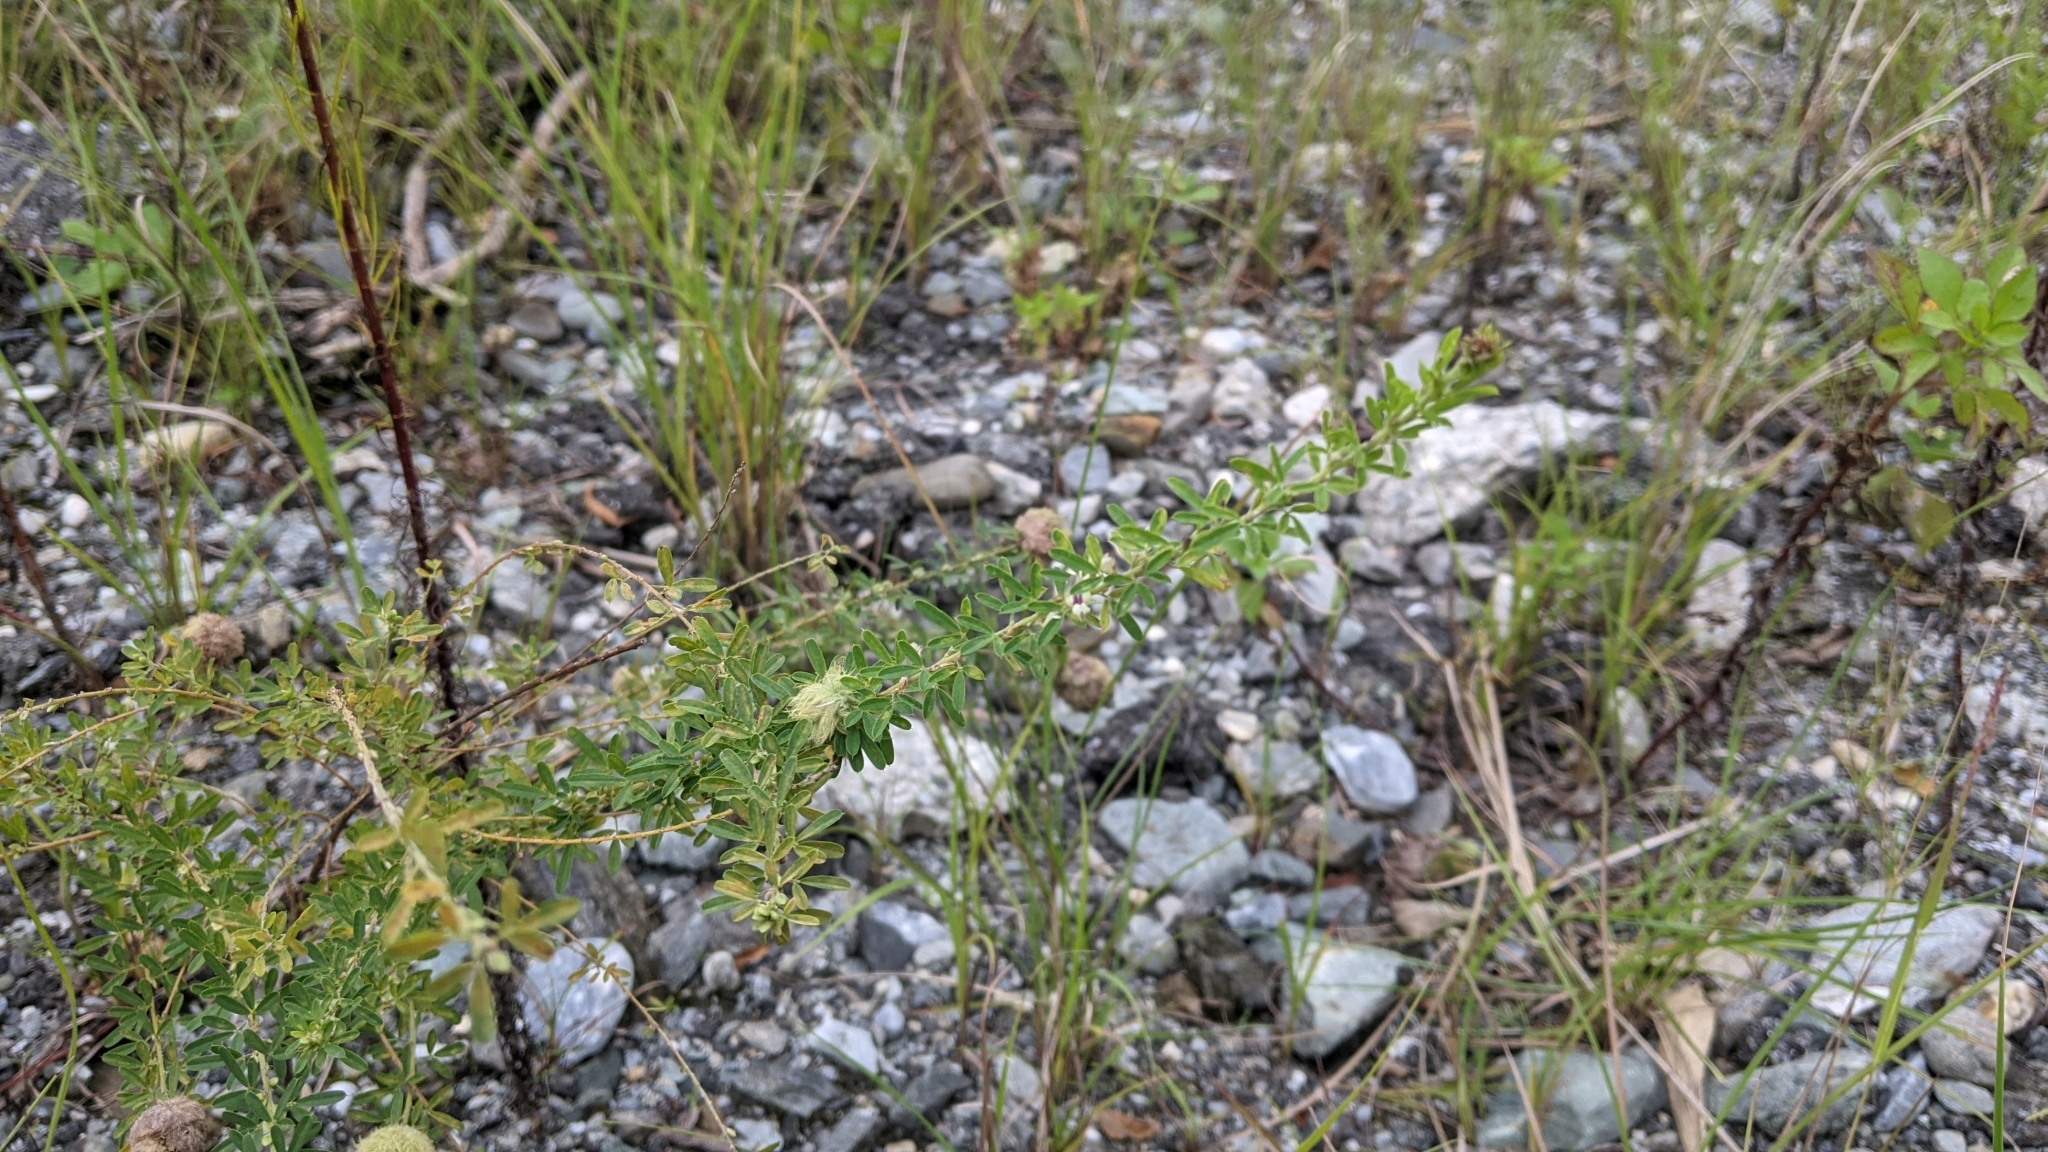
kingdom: Plantae
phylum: Tracheophyta
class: Magnoliopsida
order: Fabales
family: Fabaceae
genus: Lespedeza
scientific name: Lespedeza cuneata
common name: Chinese bush-clover
